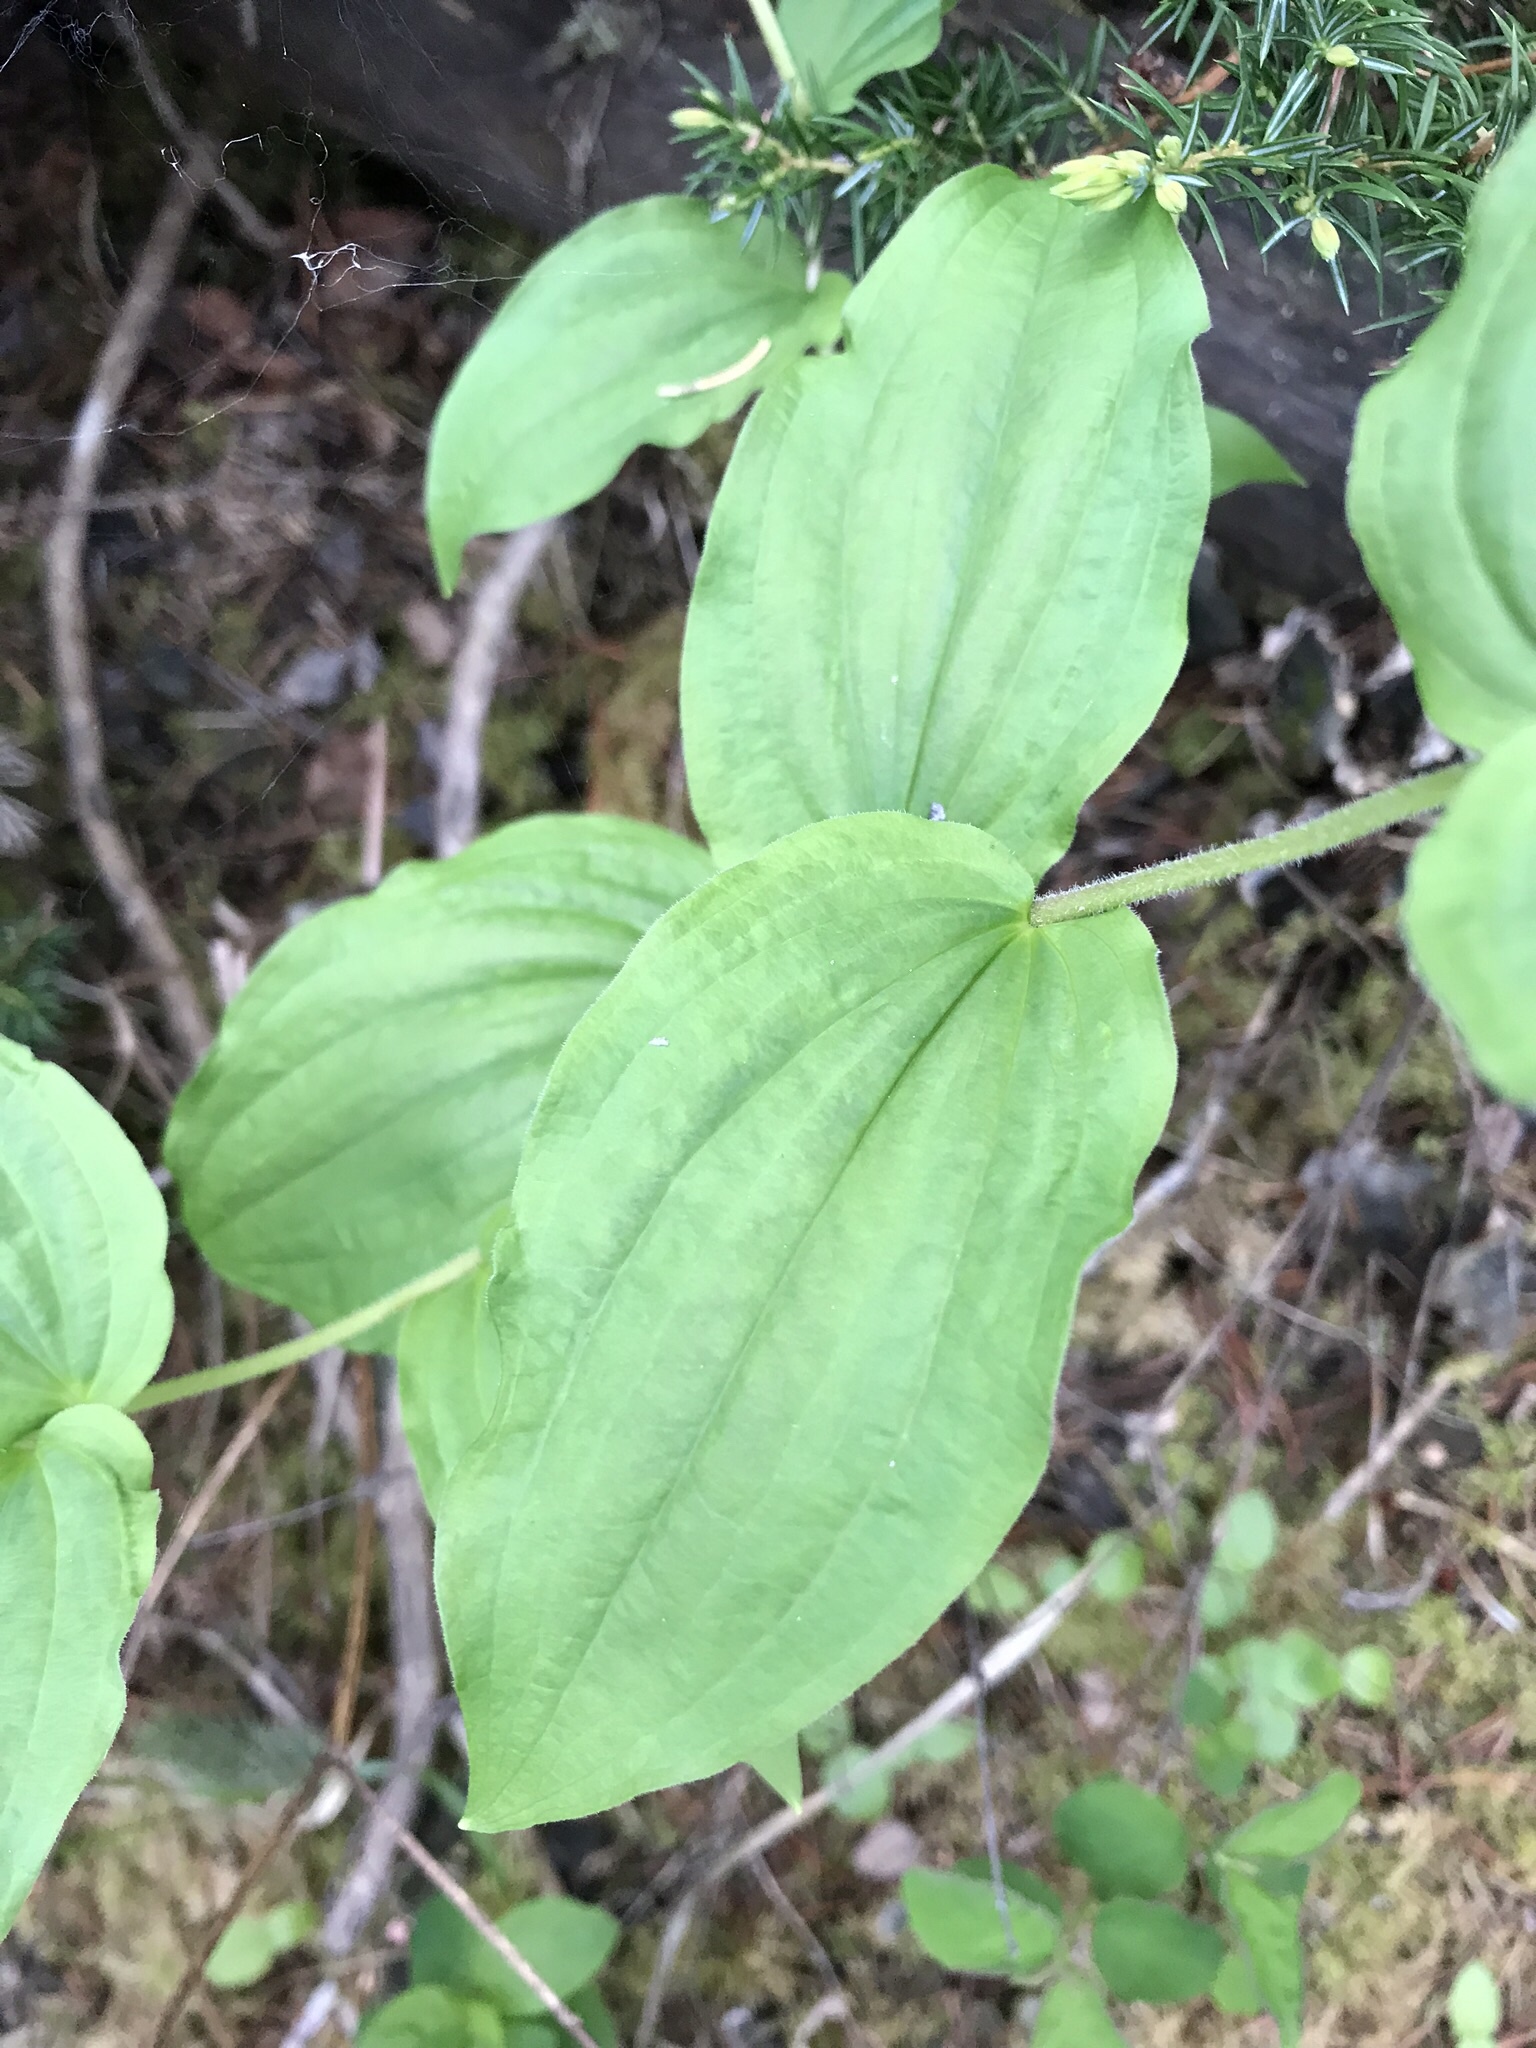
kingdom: Plantae
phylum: Tracheophyta
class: Liliopsida
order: Liliales
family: Liliaceae
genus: Prosartes
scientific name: Prosartes trachycarpa
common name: Rough-fruit fairy-bells
